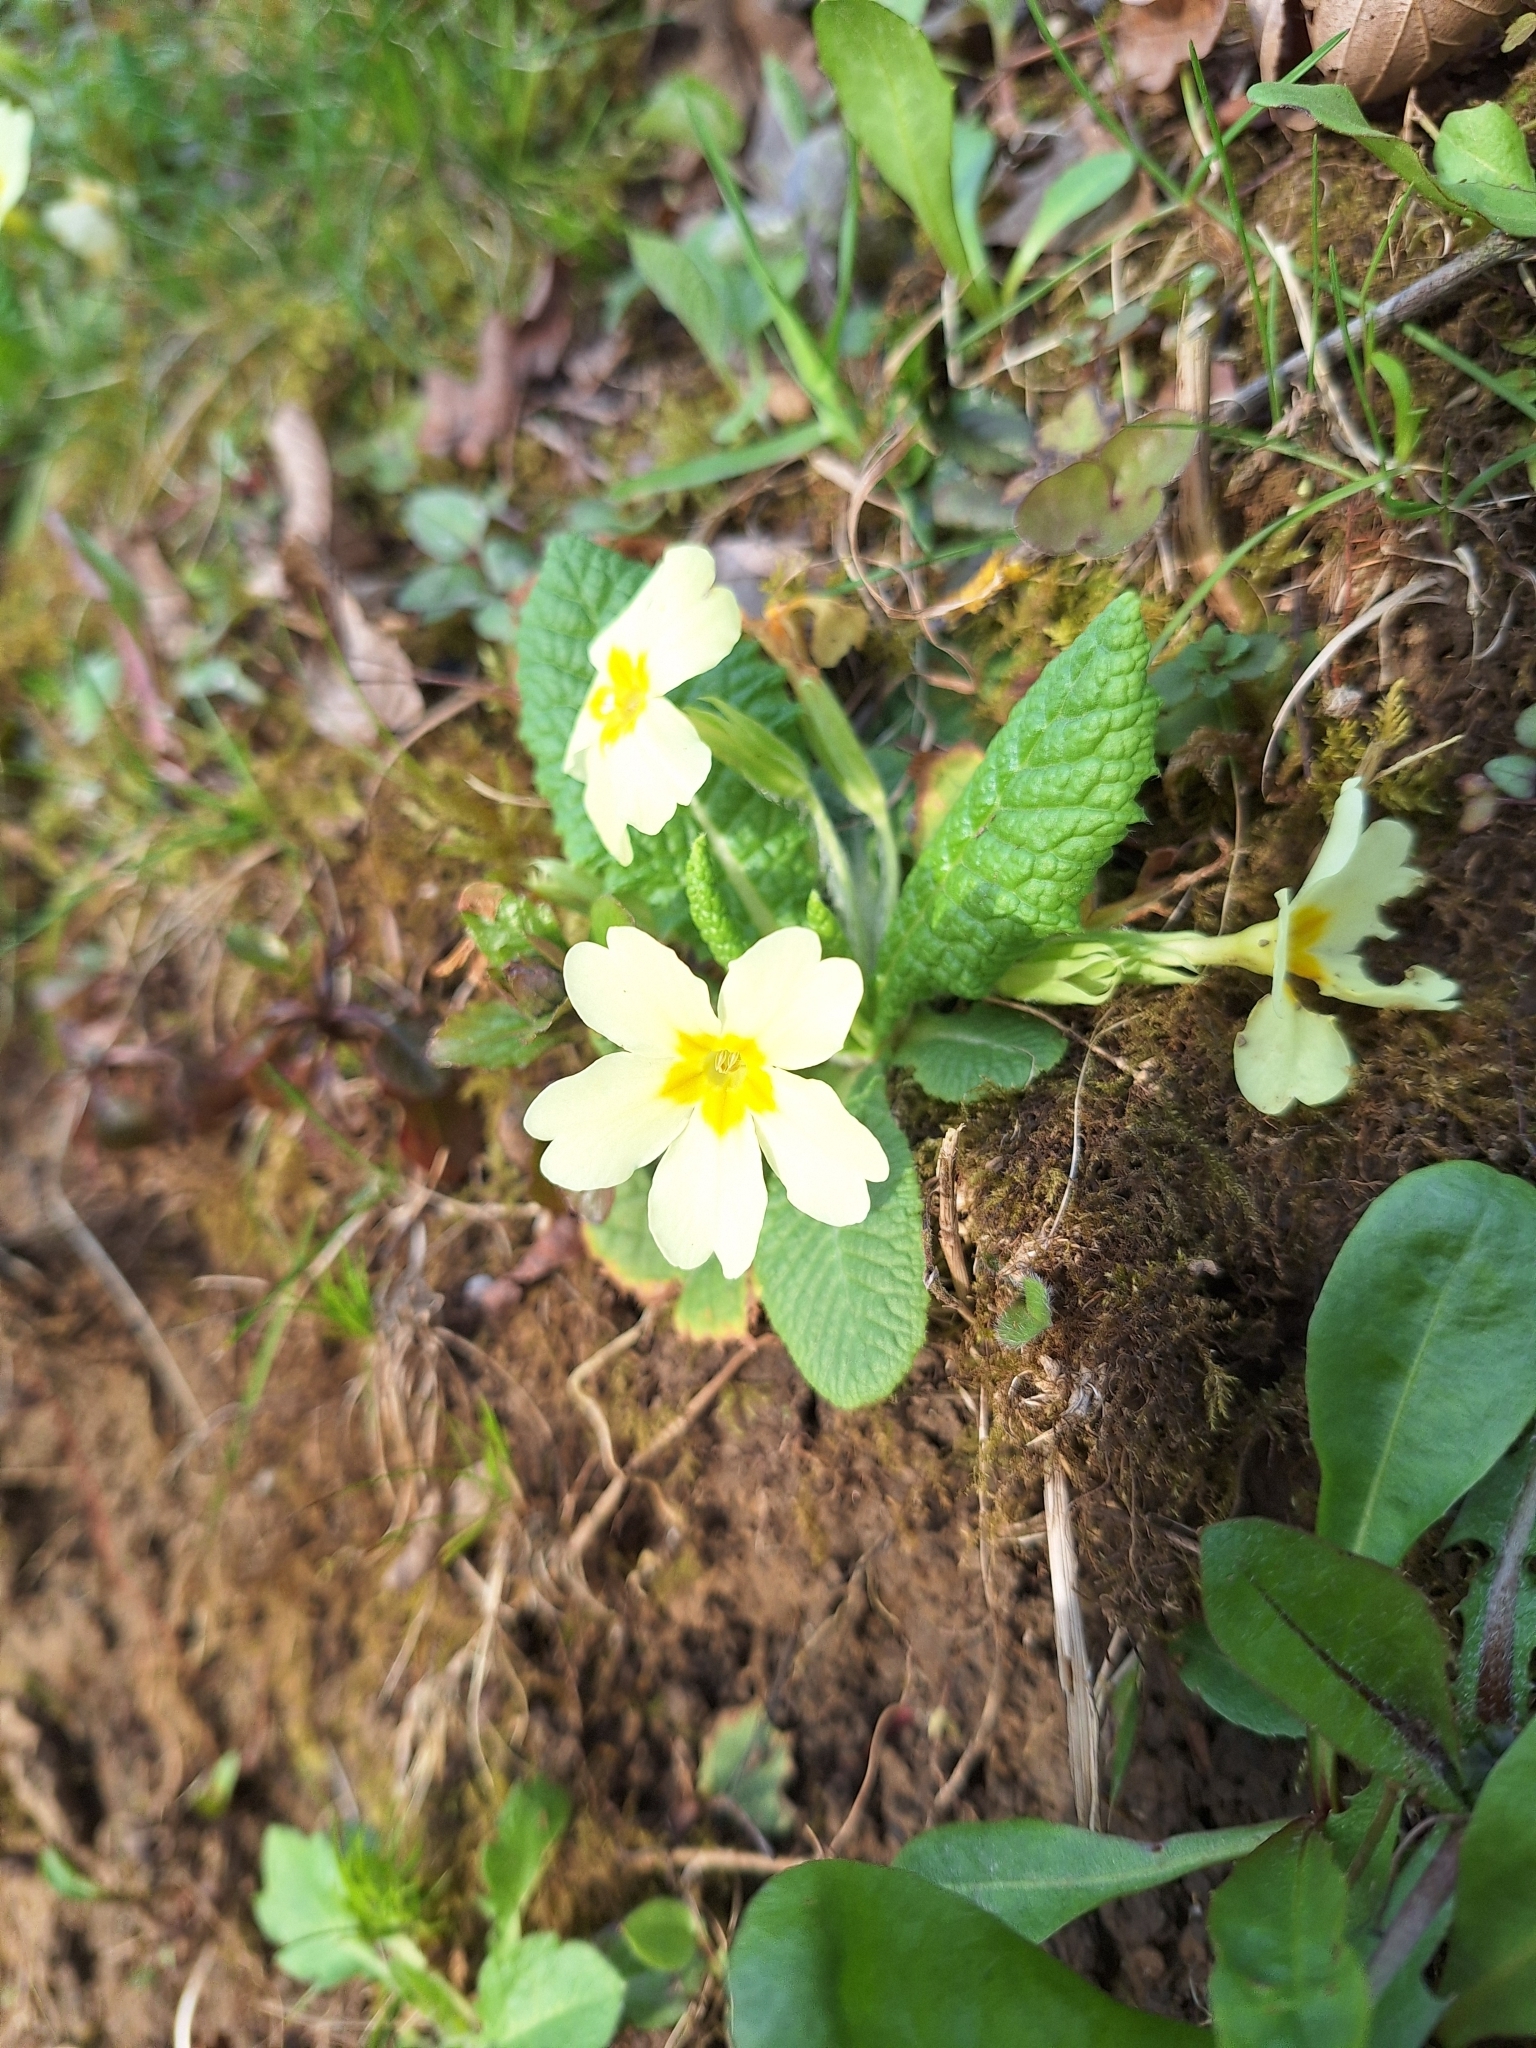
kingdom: Plantae
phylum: Tracheophyta
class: Magnoliopsida
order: Ericales
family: Primulaceae
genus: Primula
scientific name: Primula vulgaris
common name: Primrose
